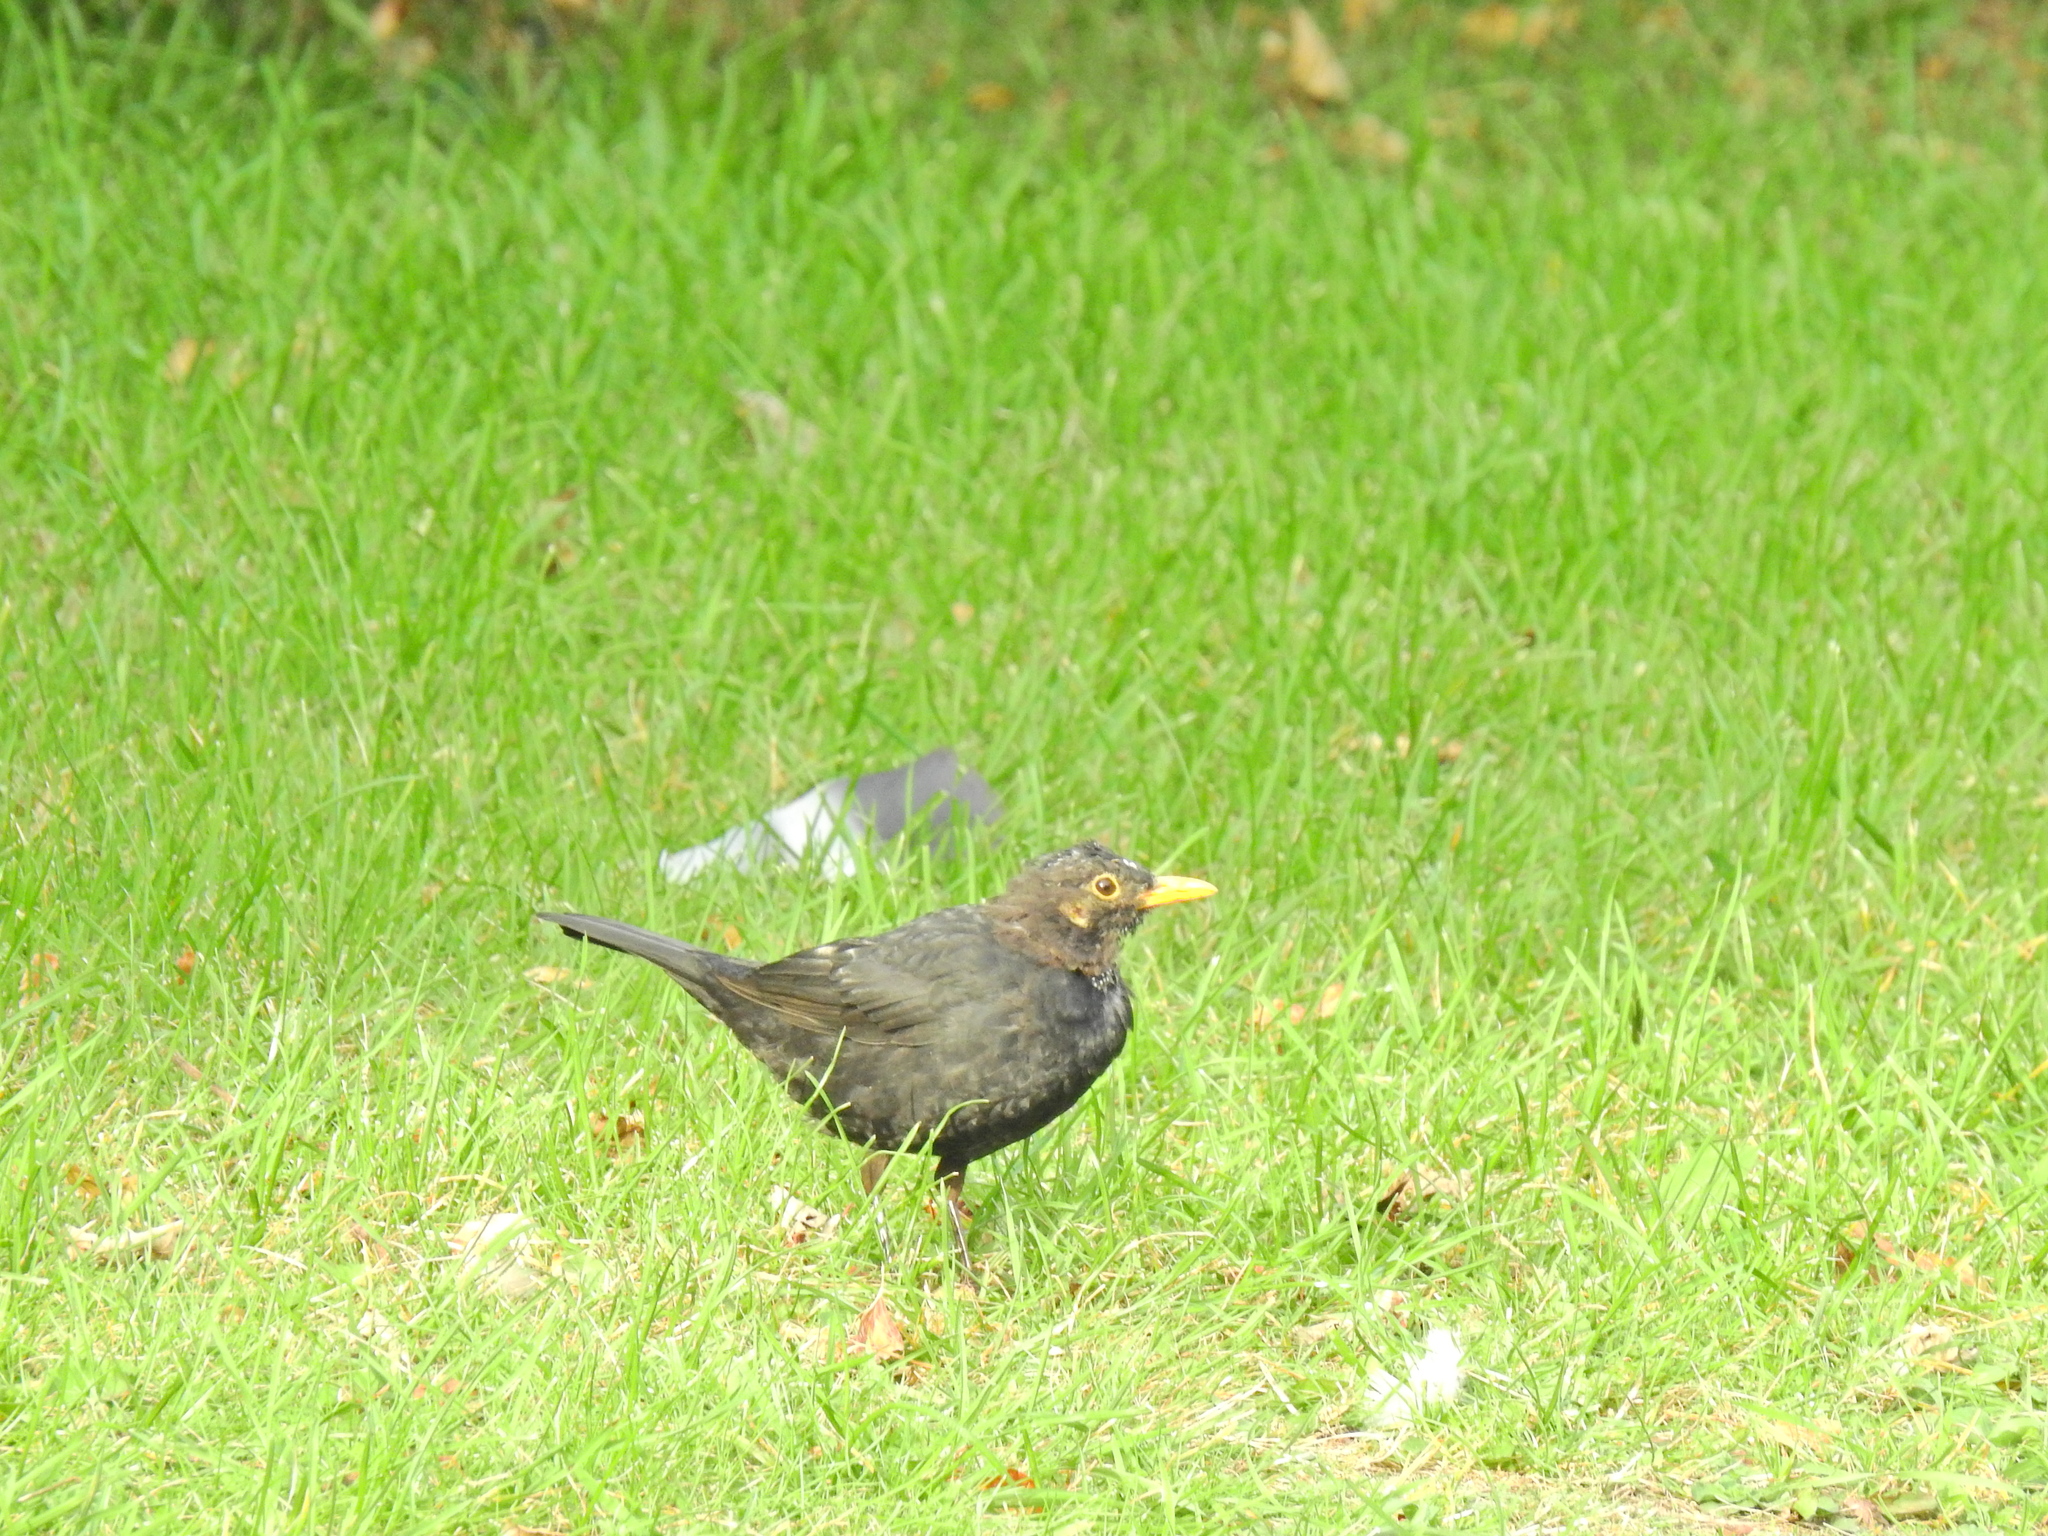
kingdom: Animalia
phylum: Chordata
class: Aves
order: Passeriformes
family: Turdidae
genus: Turdus
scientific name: Turdus merula
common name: Common blackbird
